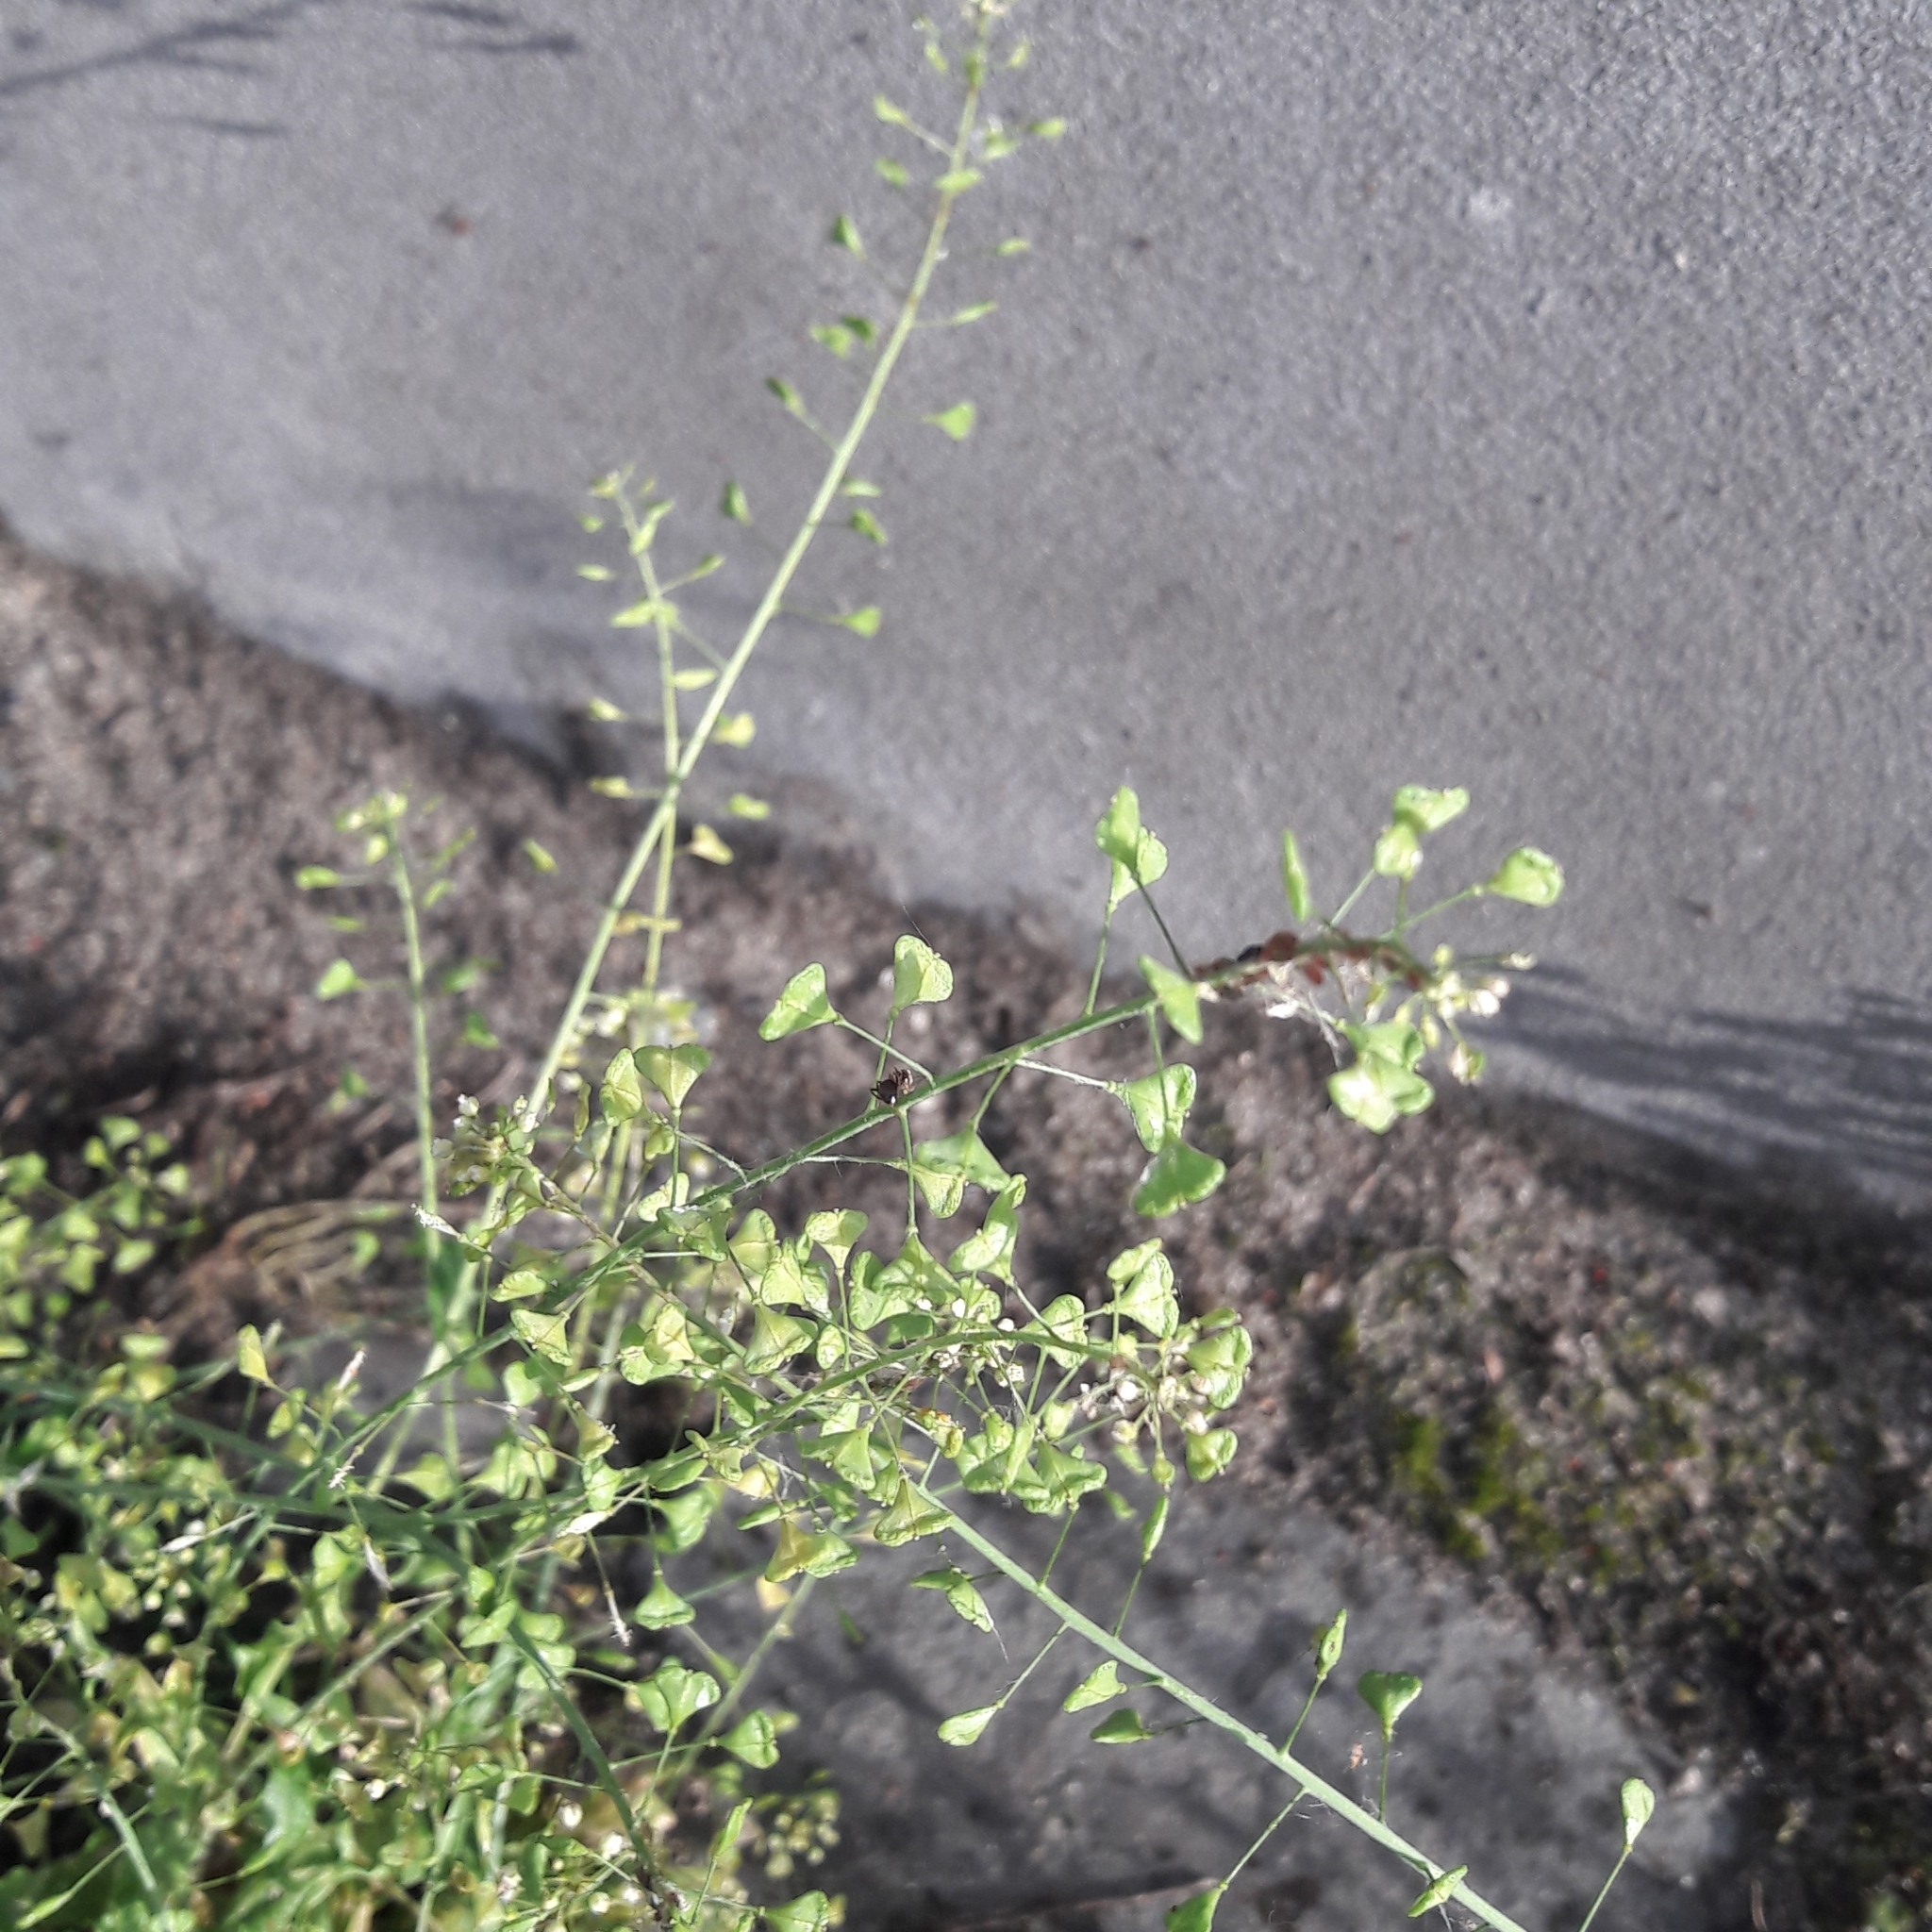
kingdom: Plantae
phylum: Tracheophyta
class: Magnoliopsida
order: Brassicales
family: Brassicaceae
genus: Capsella
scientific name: Capsella bursa-pastoris
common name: Shepherd's purse
